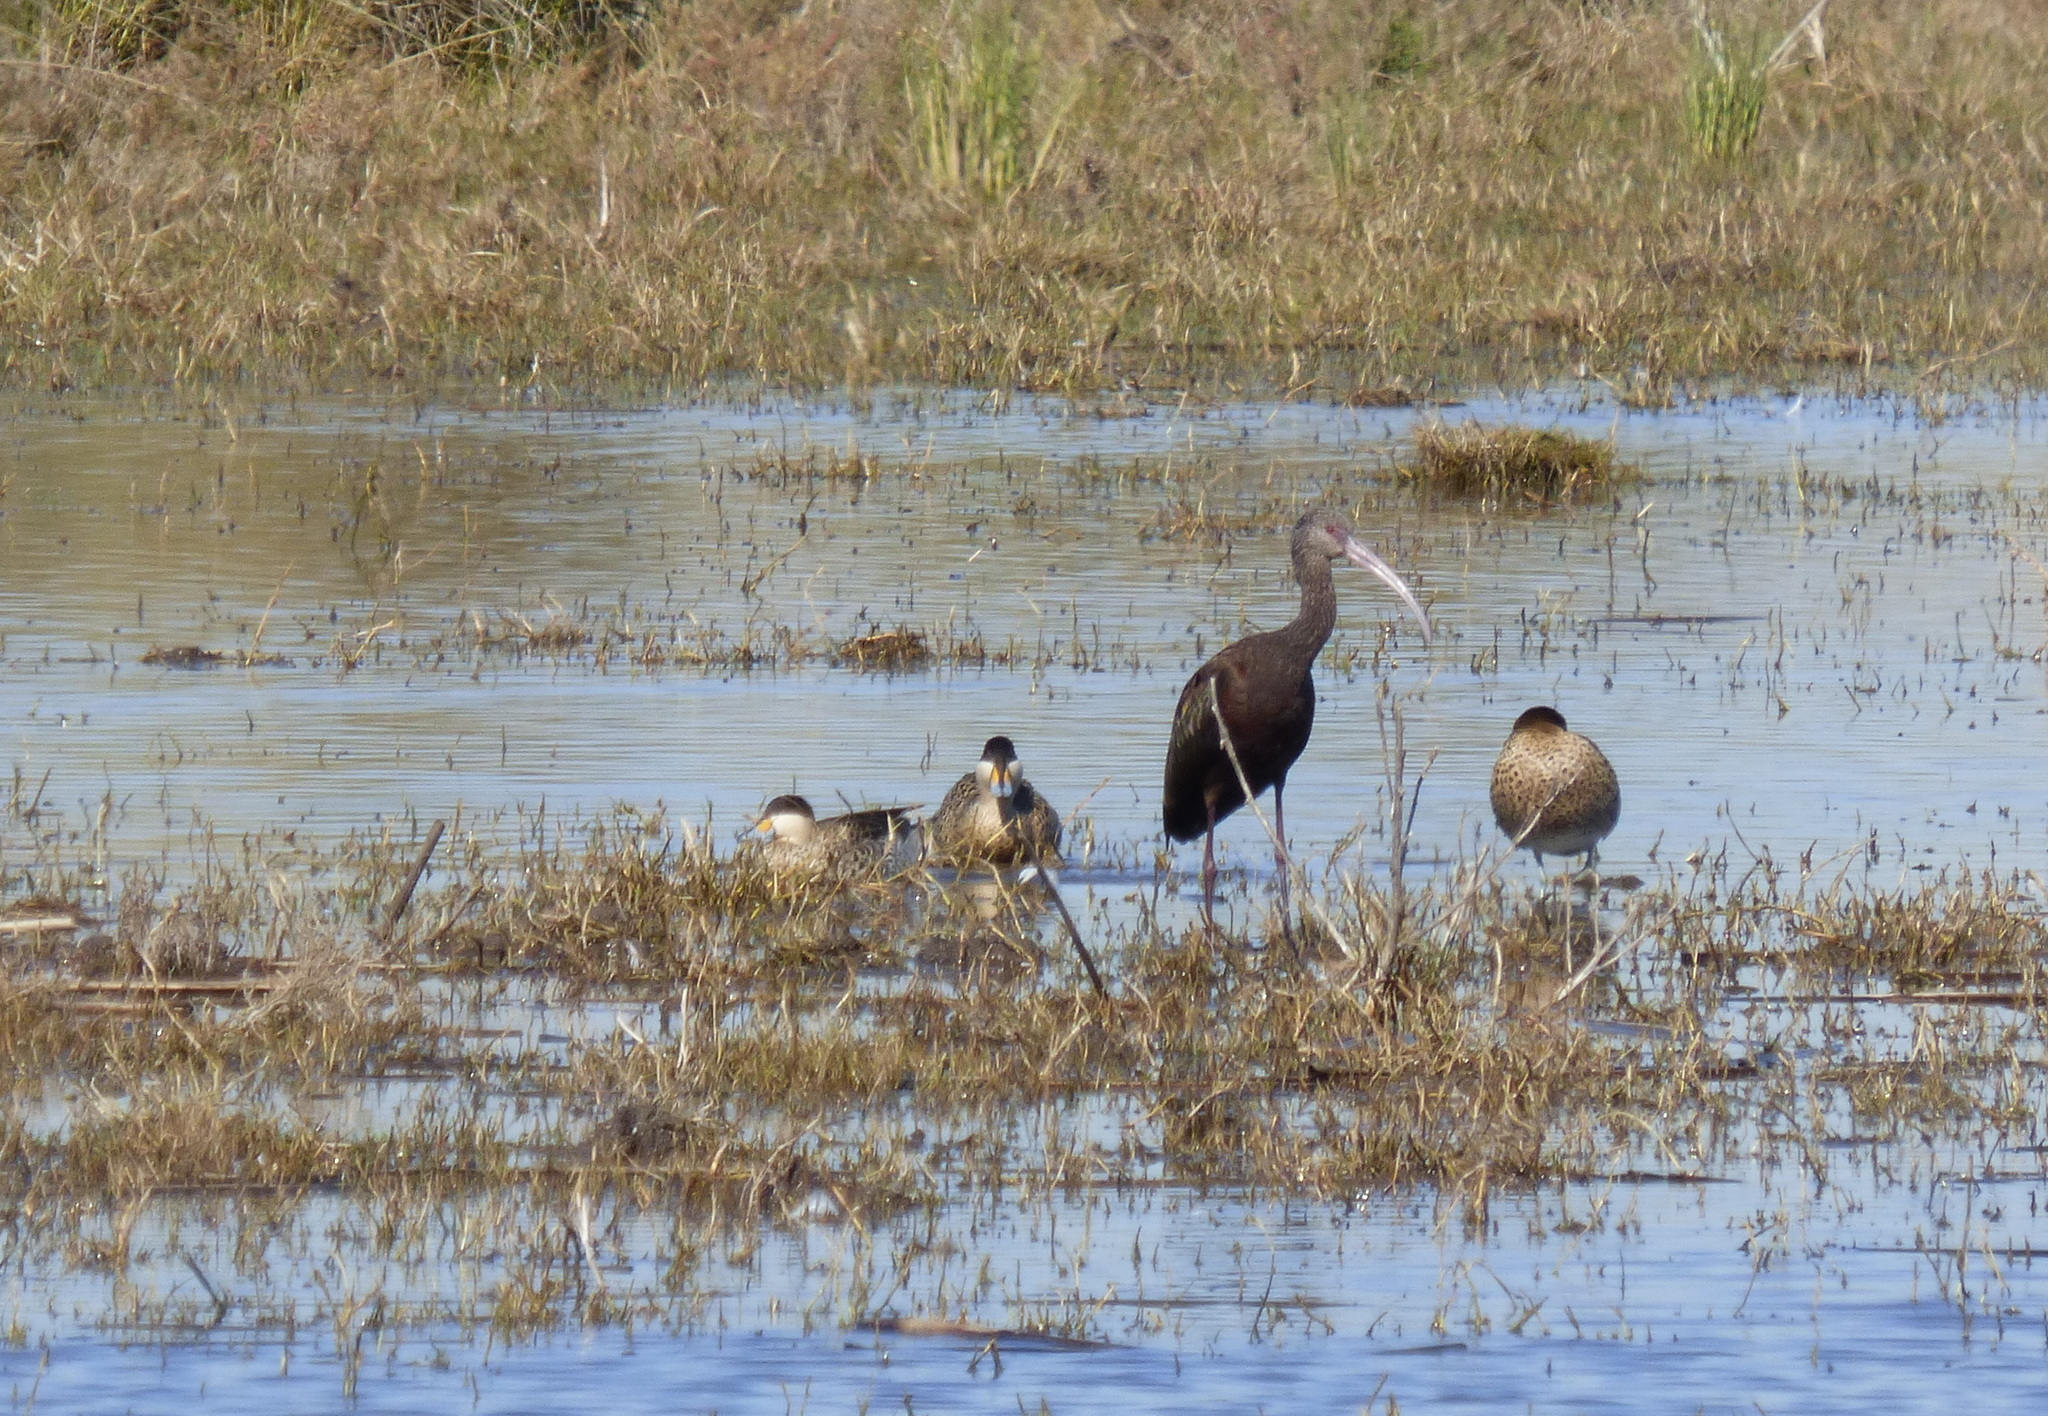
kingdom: Animalia
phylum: Chordata
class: Aves
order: Anseriformes
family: Anatidae
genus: Spatula
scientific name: Spatula versicolor
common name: Silver teal
